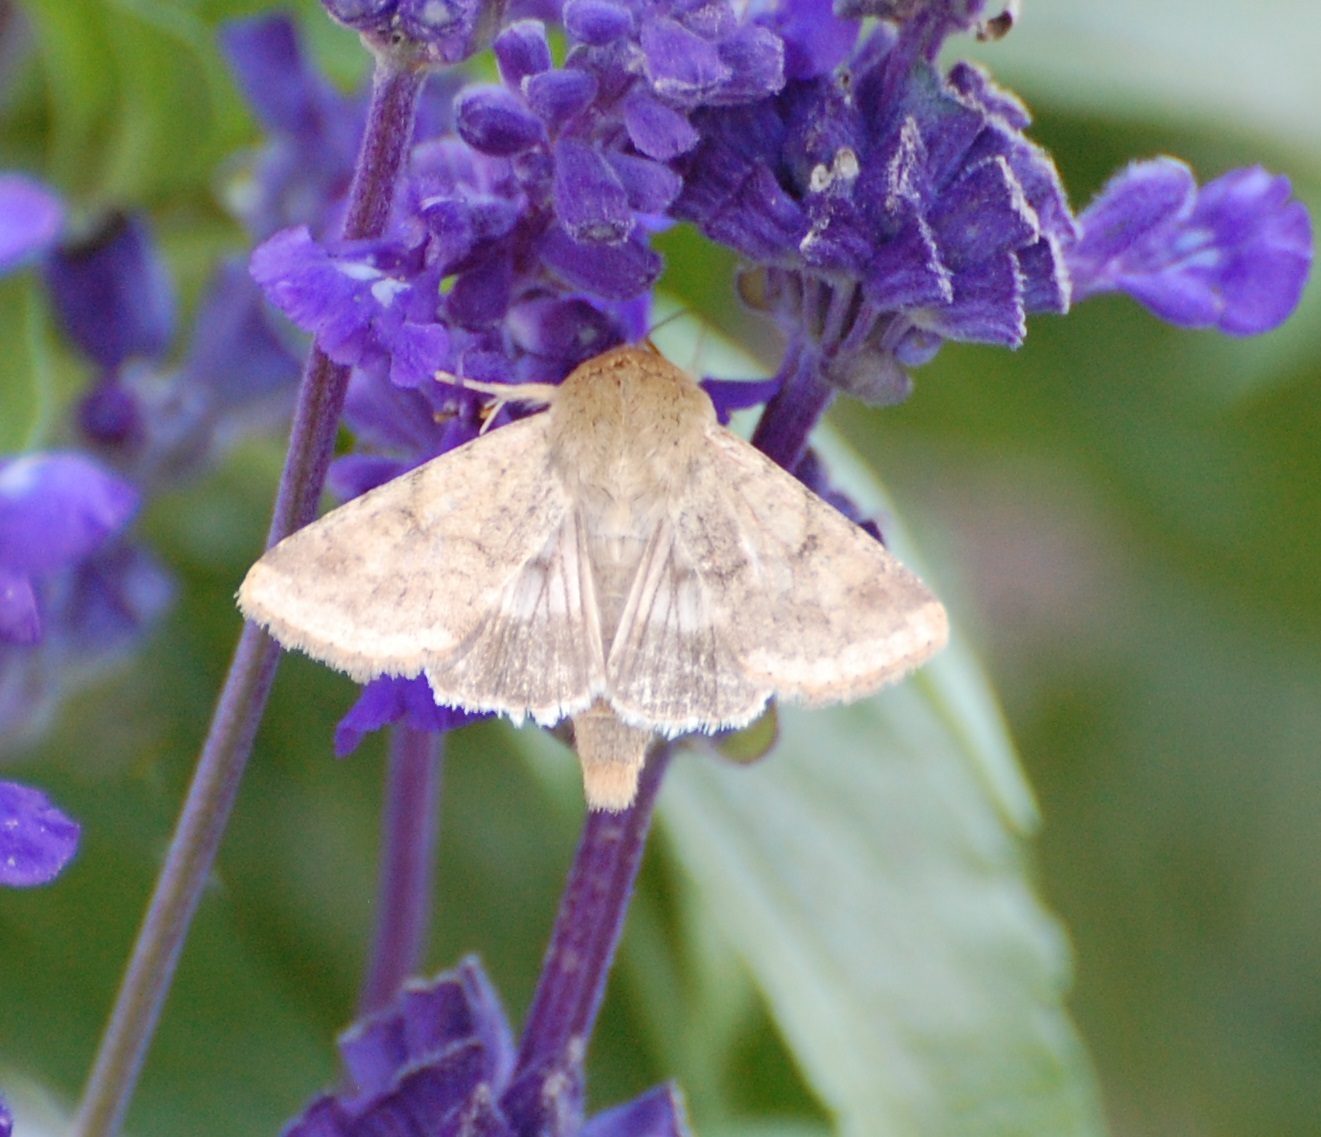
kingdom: Animalia
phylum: Arthropoda
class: Insecta
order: Lepidoptera
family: Noctuidae
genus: Helicoverpa
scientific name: Helicoverpa zea
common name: Bollworm
